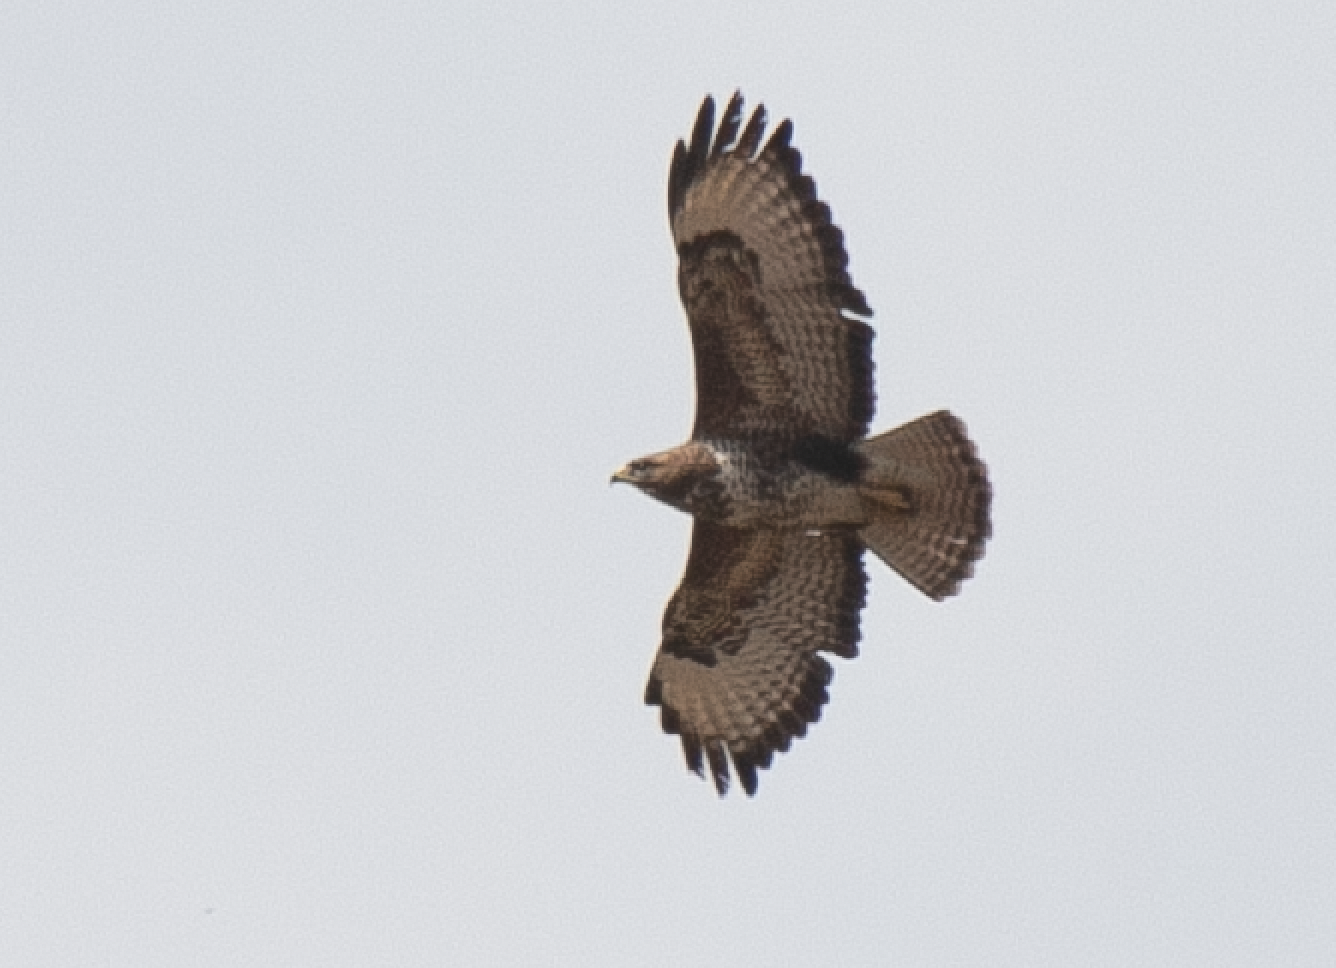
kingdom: Animalia
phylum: Chordata
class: Aves
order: Accipitriformes
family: Accipitridae
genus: Buteo
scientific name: Buteo buteo
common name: Common buzzard
